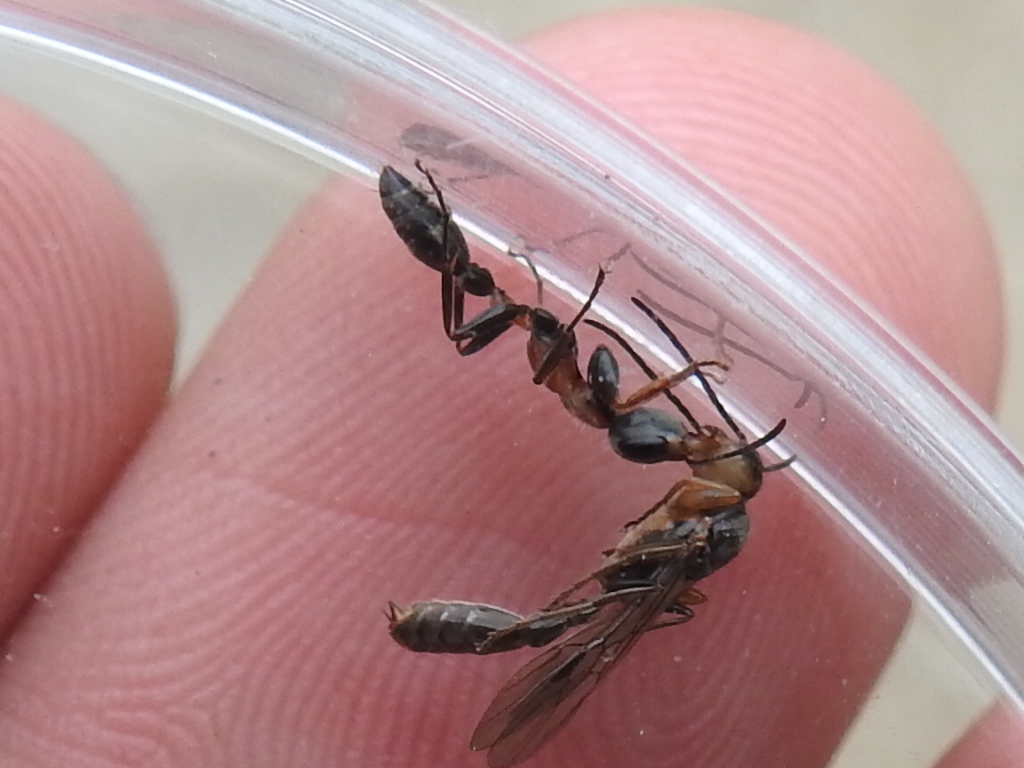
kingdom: Animalia
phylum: Arthropoda
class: Insecta
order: Hymenoptera
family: Formicidae
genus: Pseudomyrmex
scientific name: Pseudomyrmex gracilis
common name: Graceful twig ant
